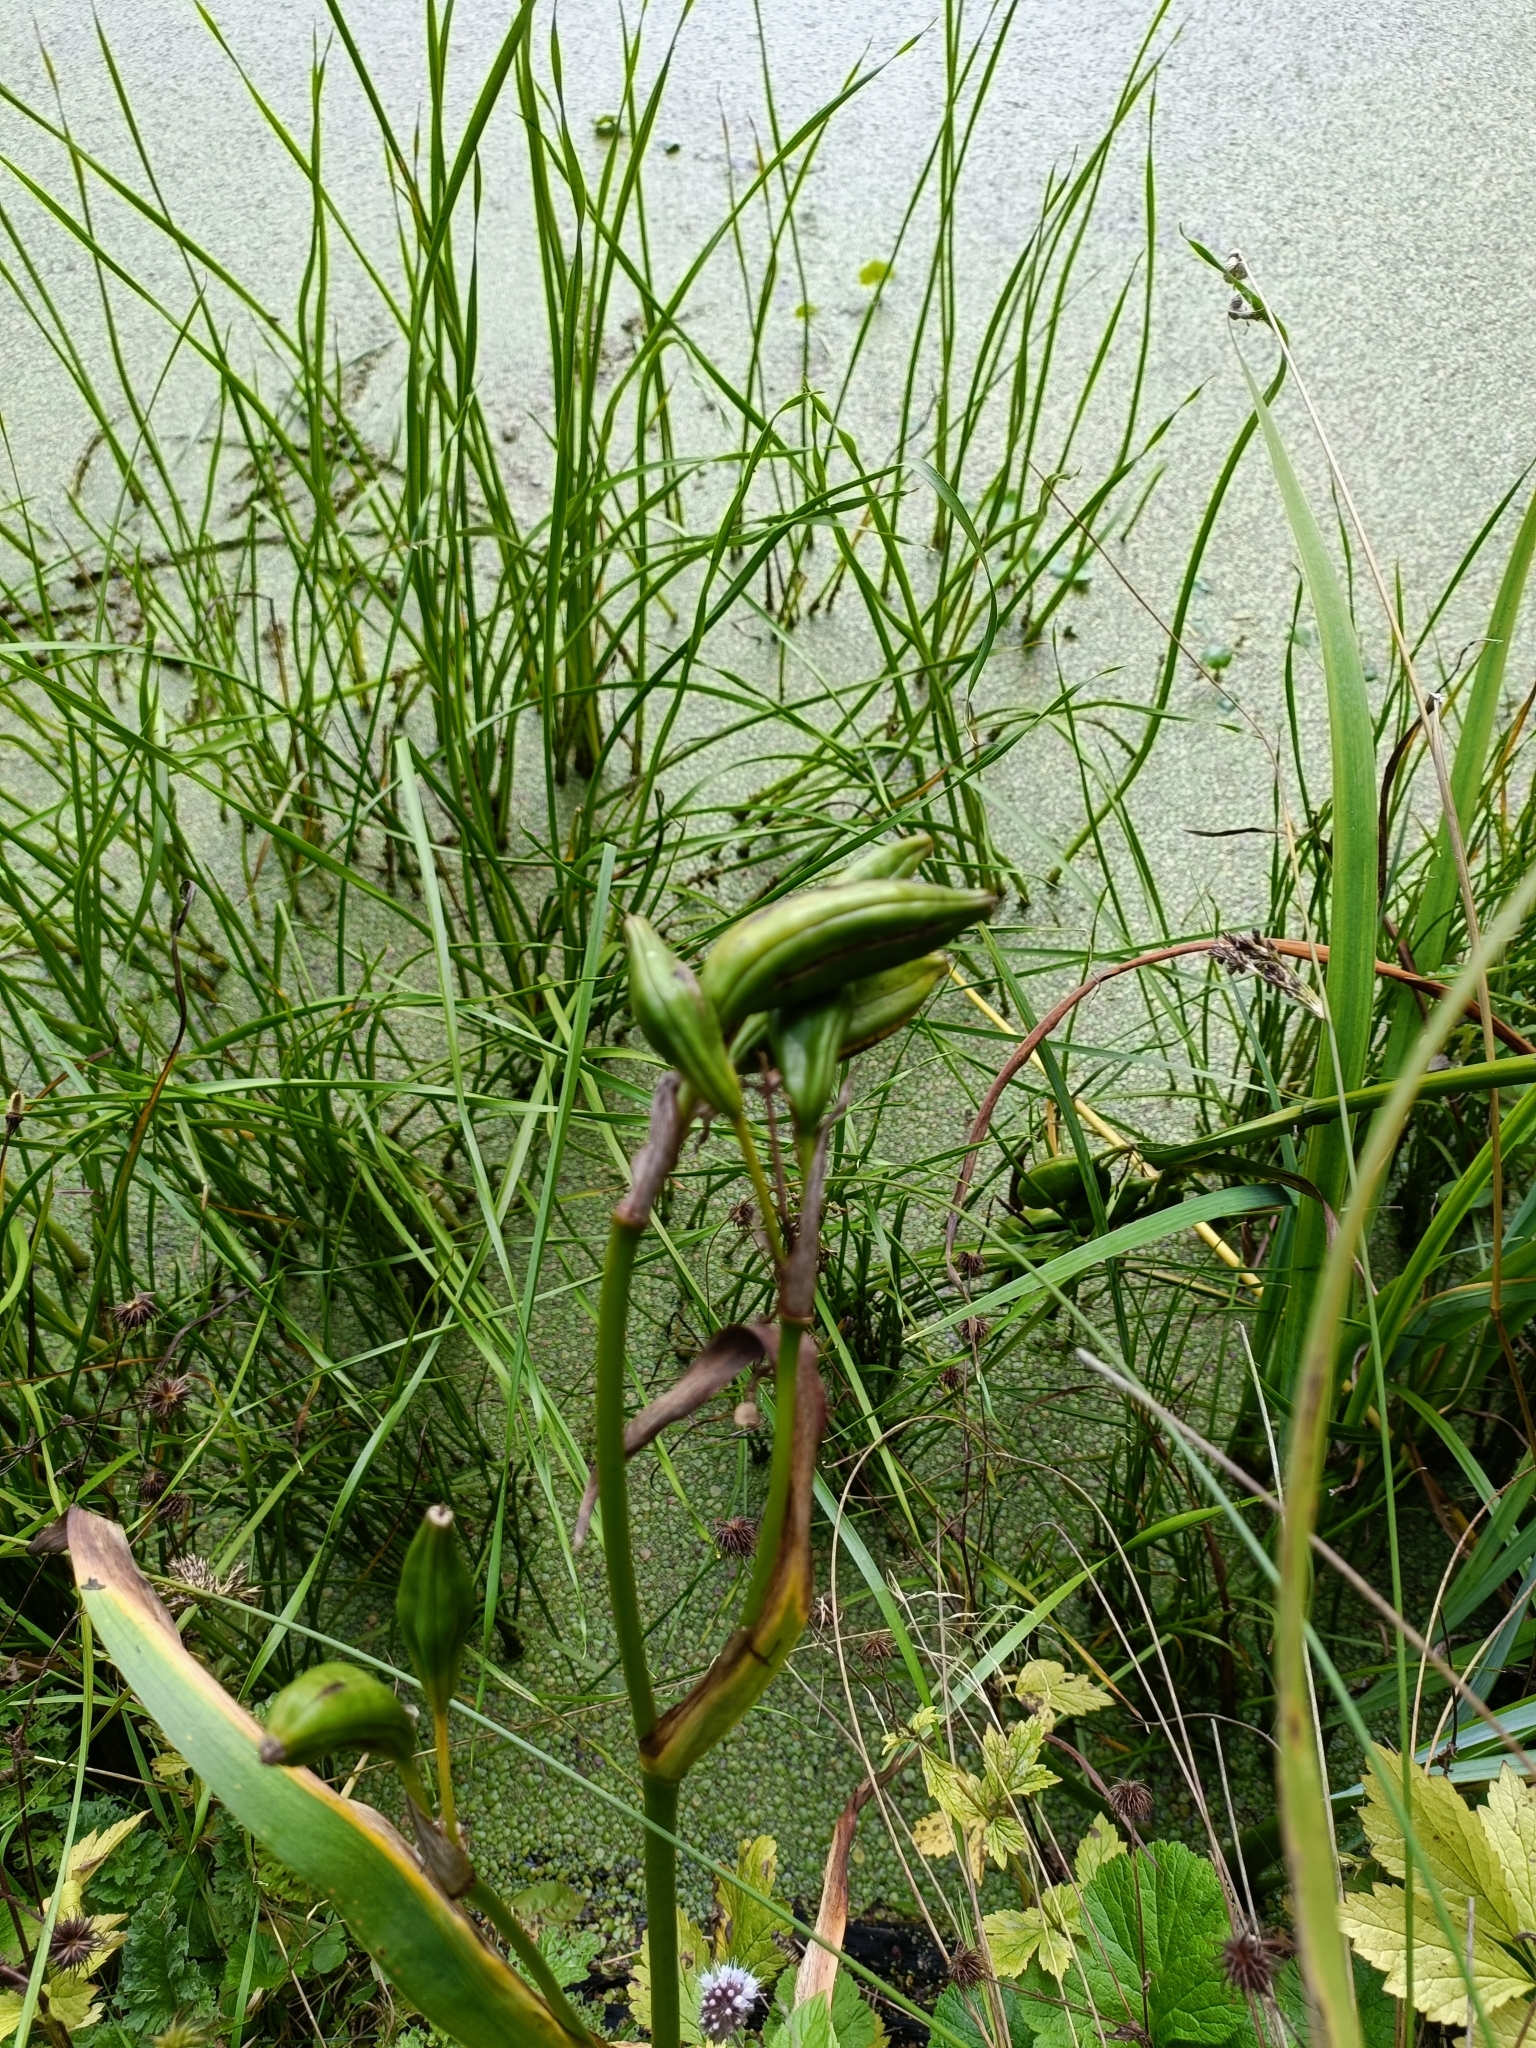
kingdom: Plantae
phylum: Tracheophyta
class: Liliopsida
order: Asparagales
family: Iridaceae
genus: Iris
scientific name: Iris pseudacorus
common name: Yellow flag
